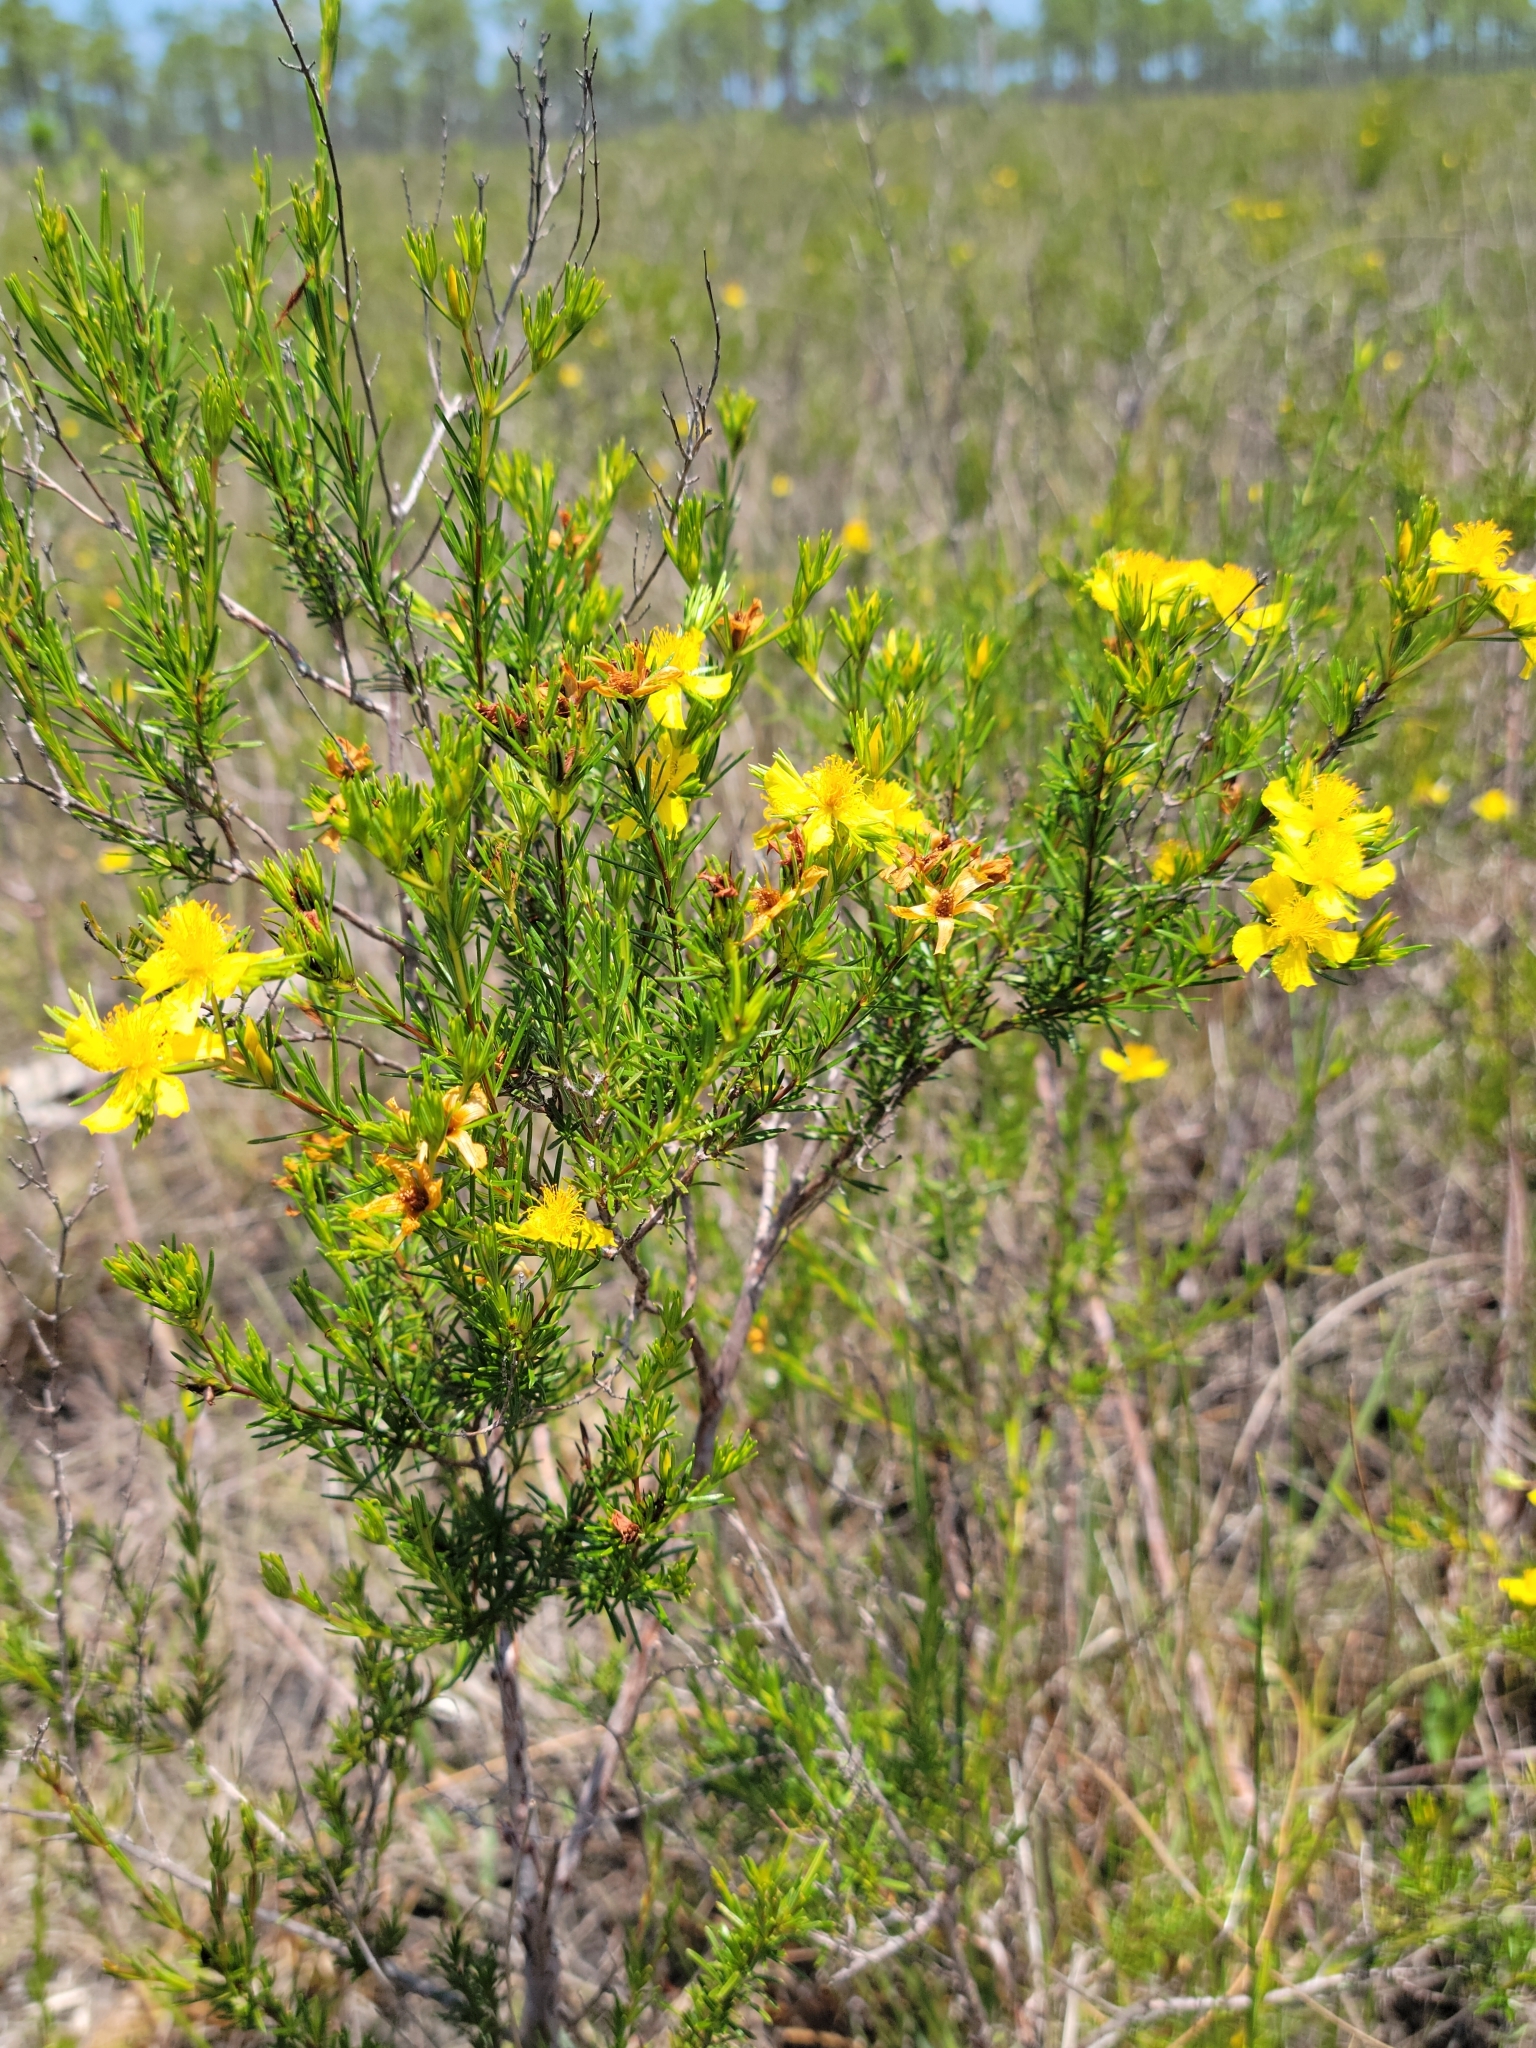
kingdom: Plantae
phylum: Tracheophyta
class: Magnoliopsida
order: Malpighiales
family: Hypericaceae
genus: Hypericum
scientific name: Hypericum fasciculatum
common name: Peelbark st. john's wort
